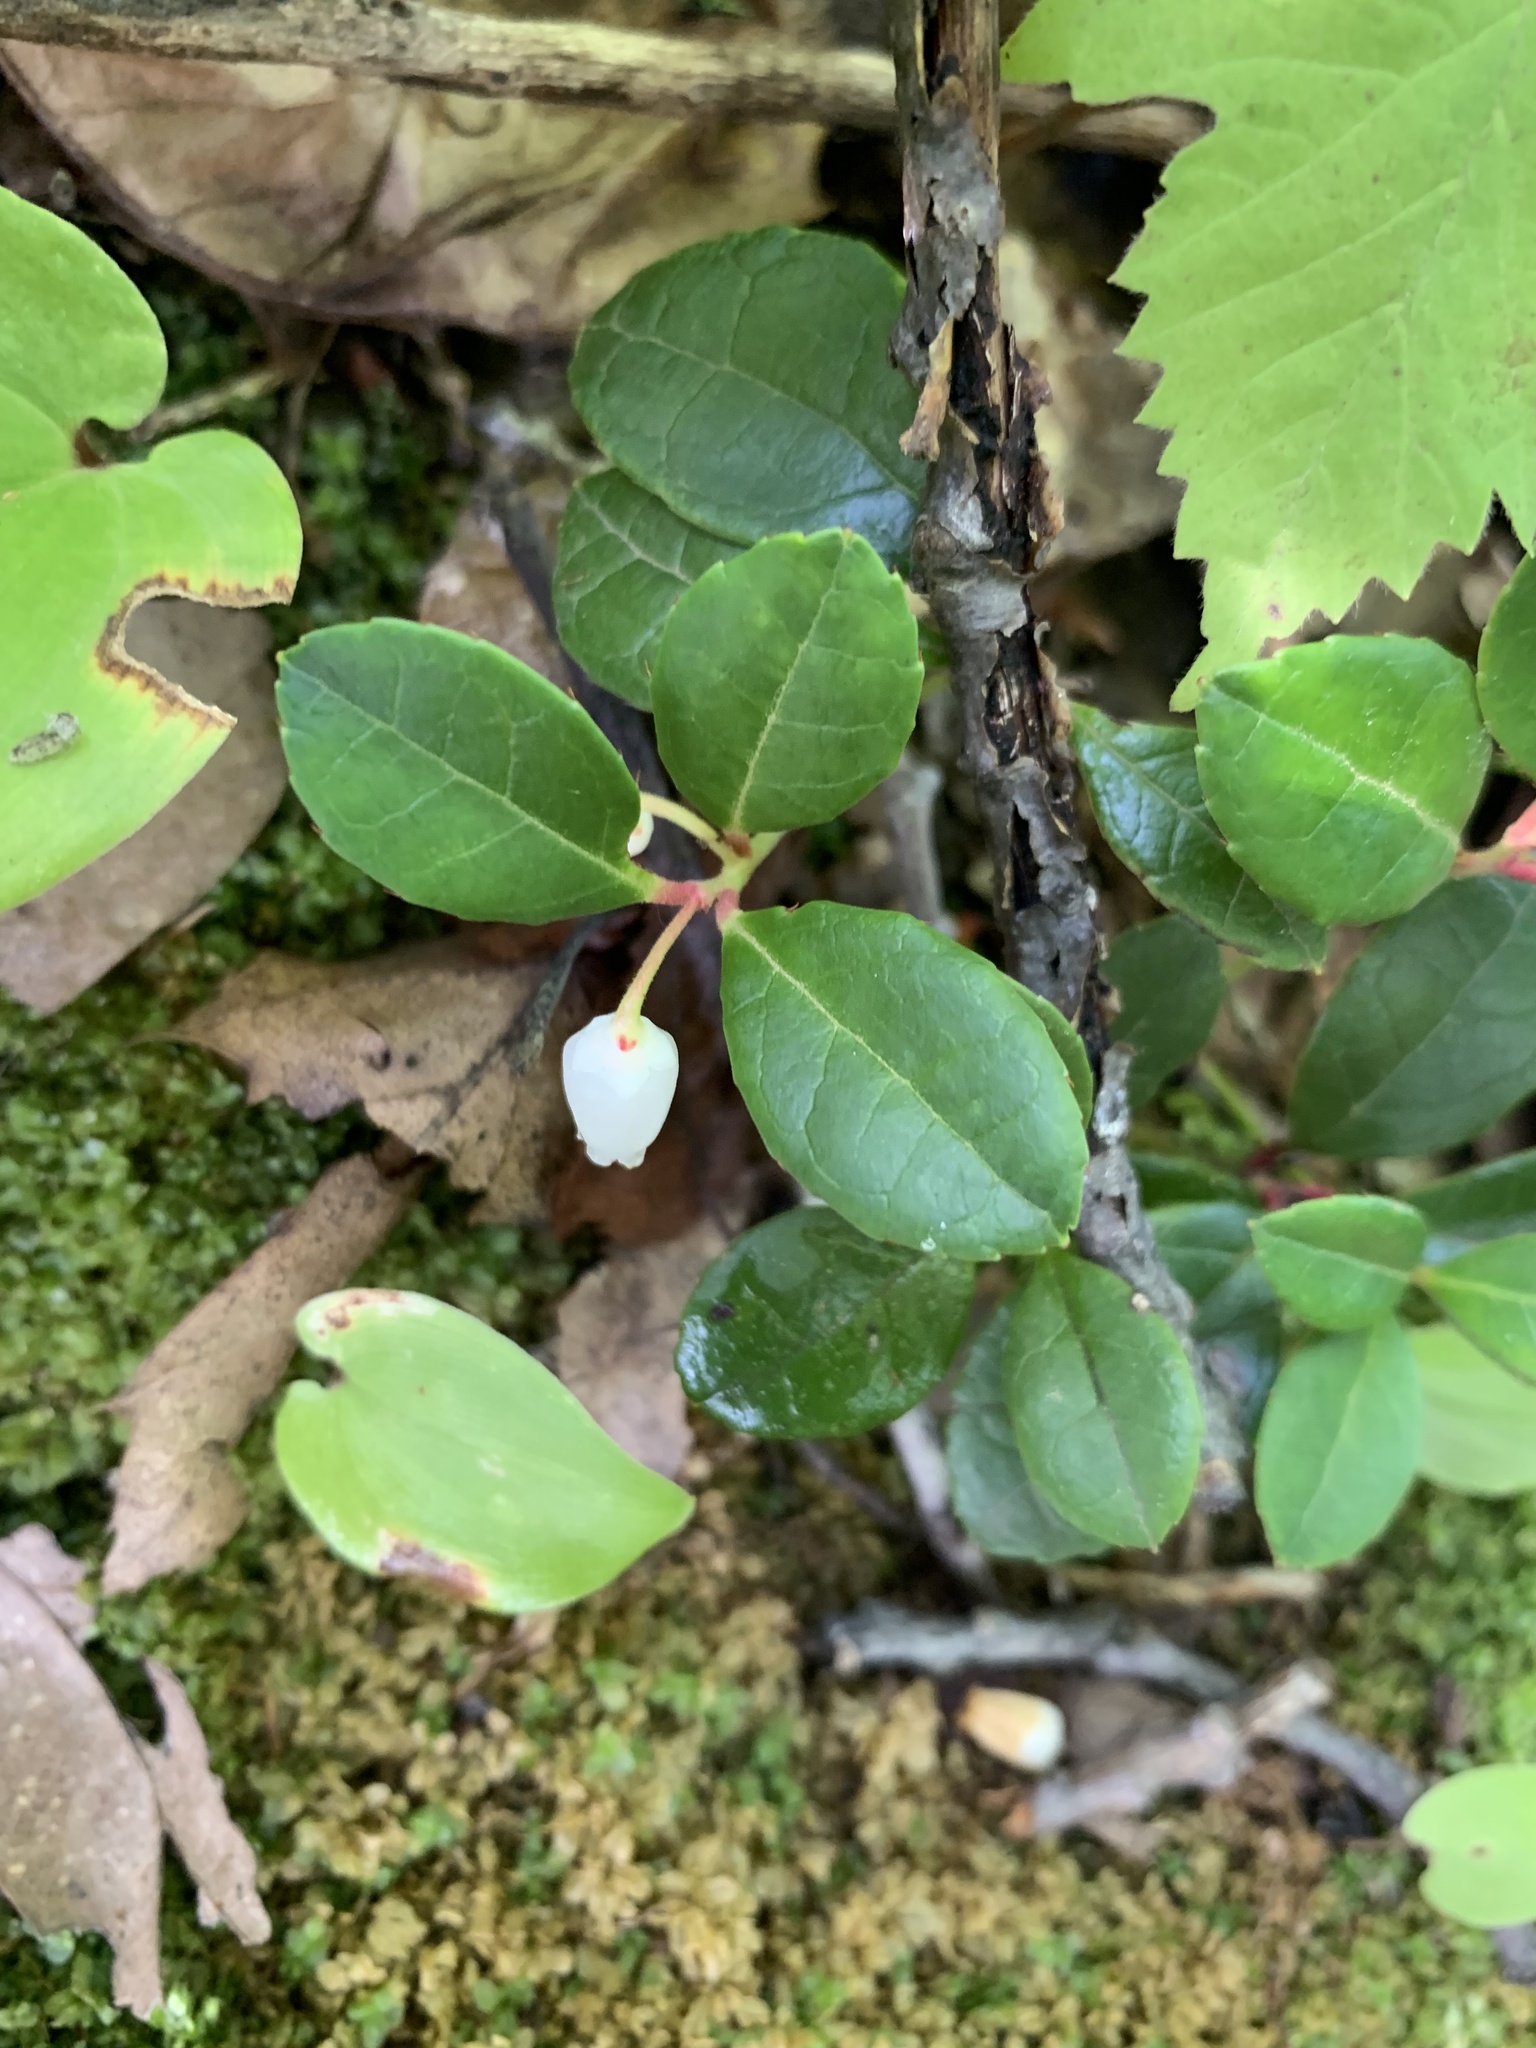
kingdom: Plantae
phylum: Tracheophyta
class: Magnoliopsida
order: Ericales
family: Ericaceae
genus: Gaultheria
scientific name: Gaultheria procumbens
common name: Checkerberry
